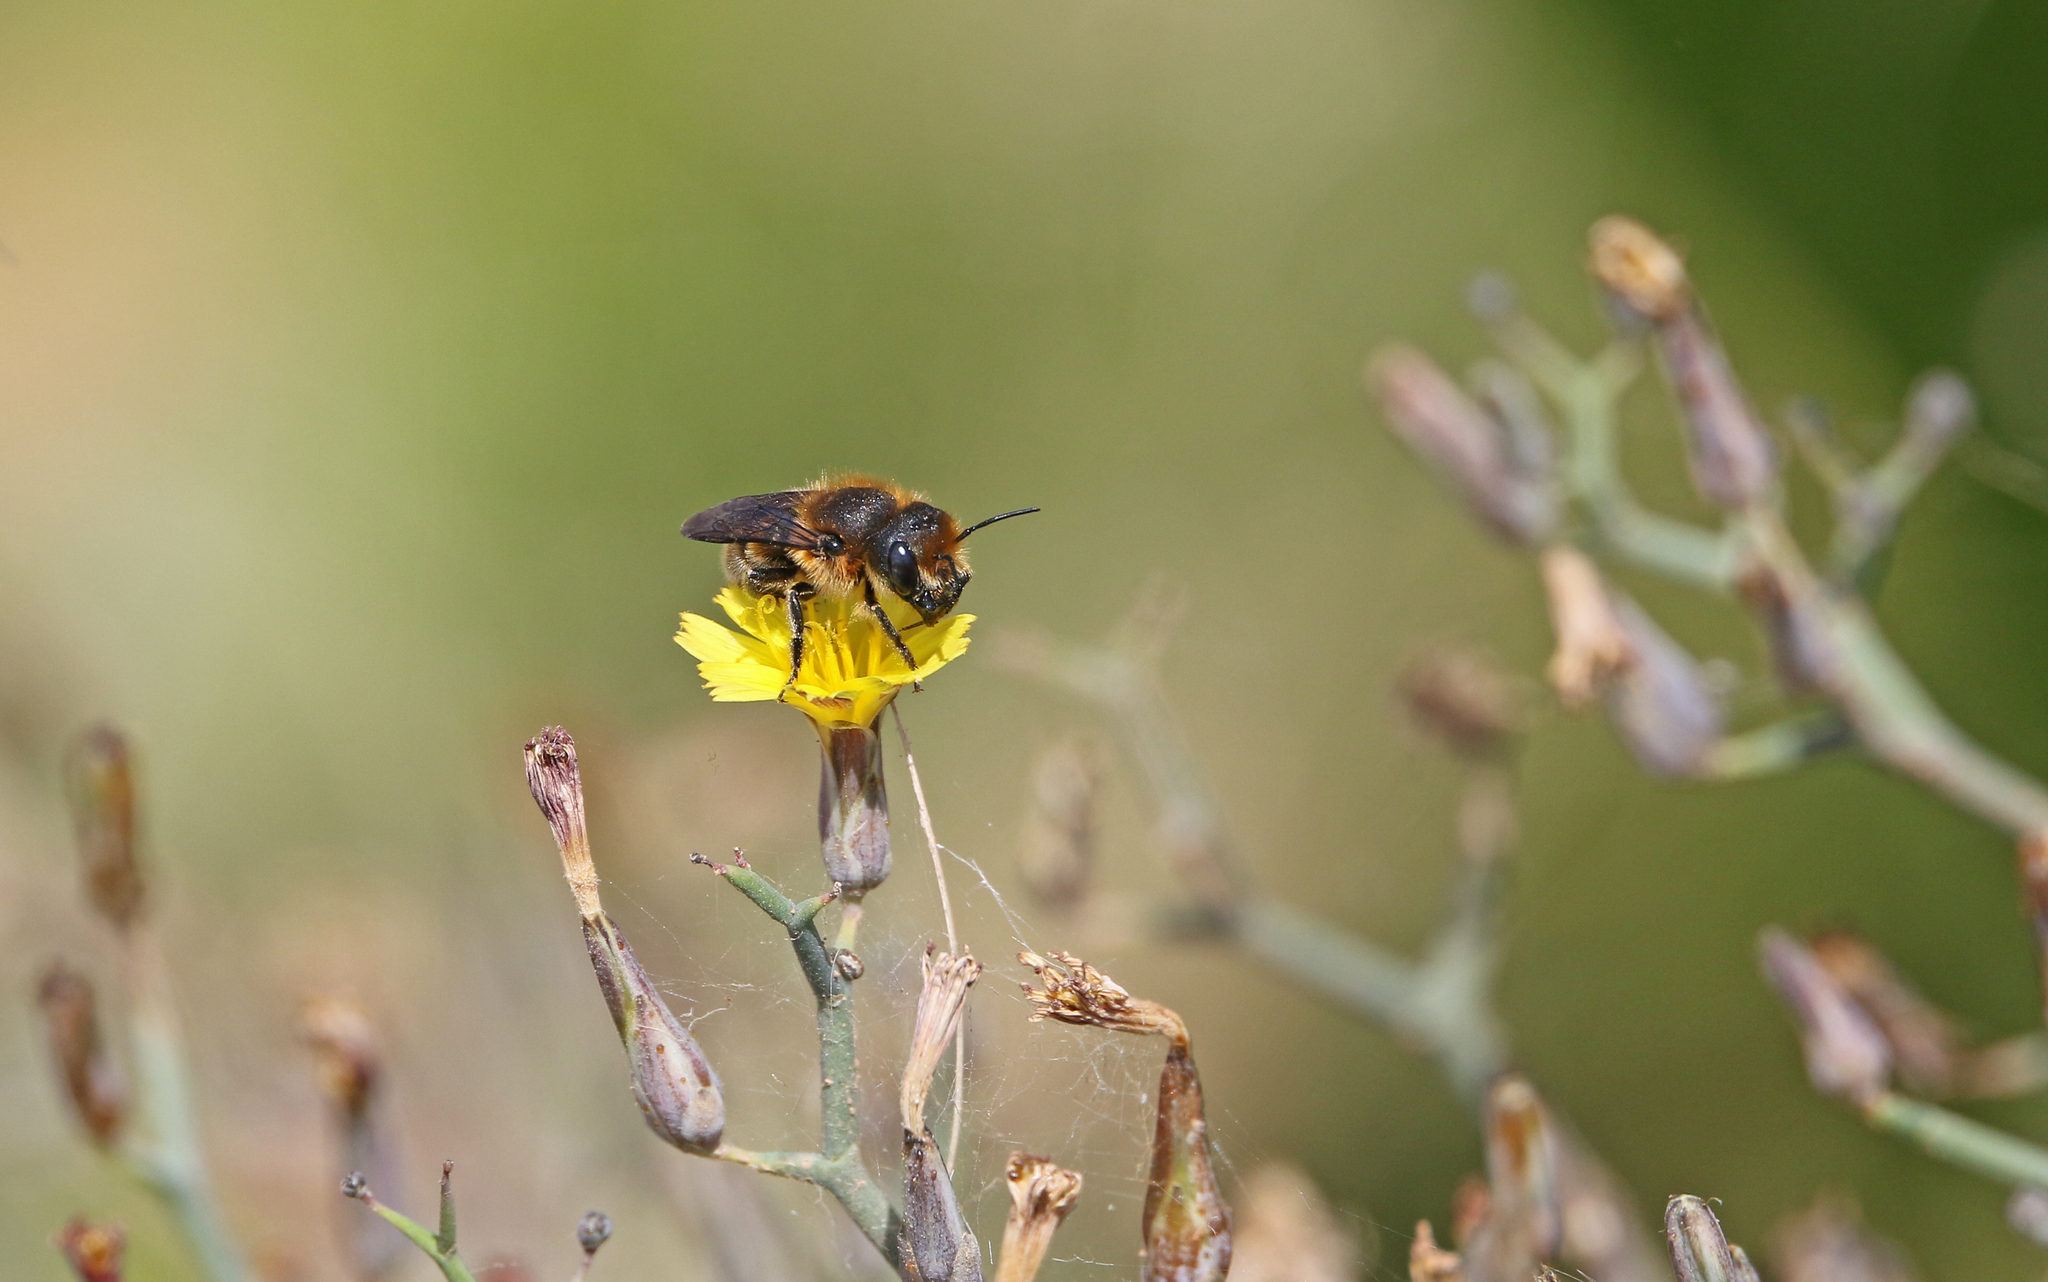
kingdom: Animalia
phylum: Arthropoda
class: Insecta
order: Hymenoptera
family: Megachilidae
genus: Osmia
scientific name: Osmia latreillei
